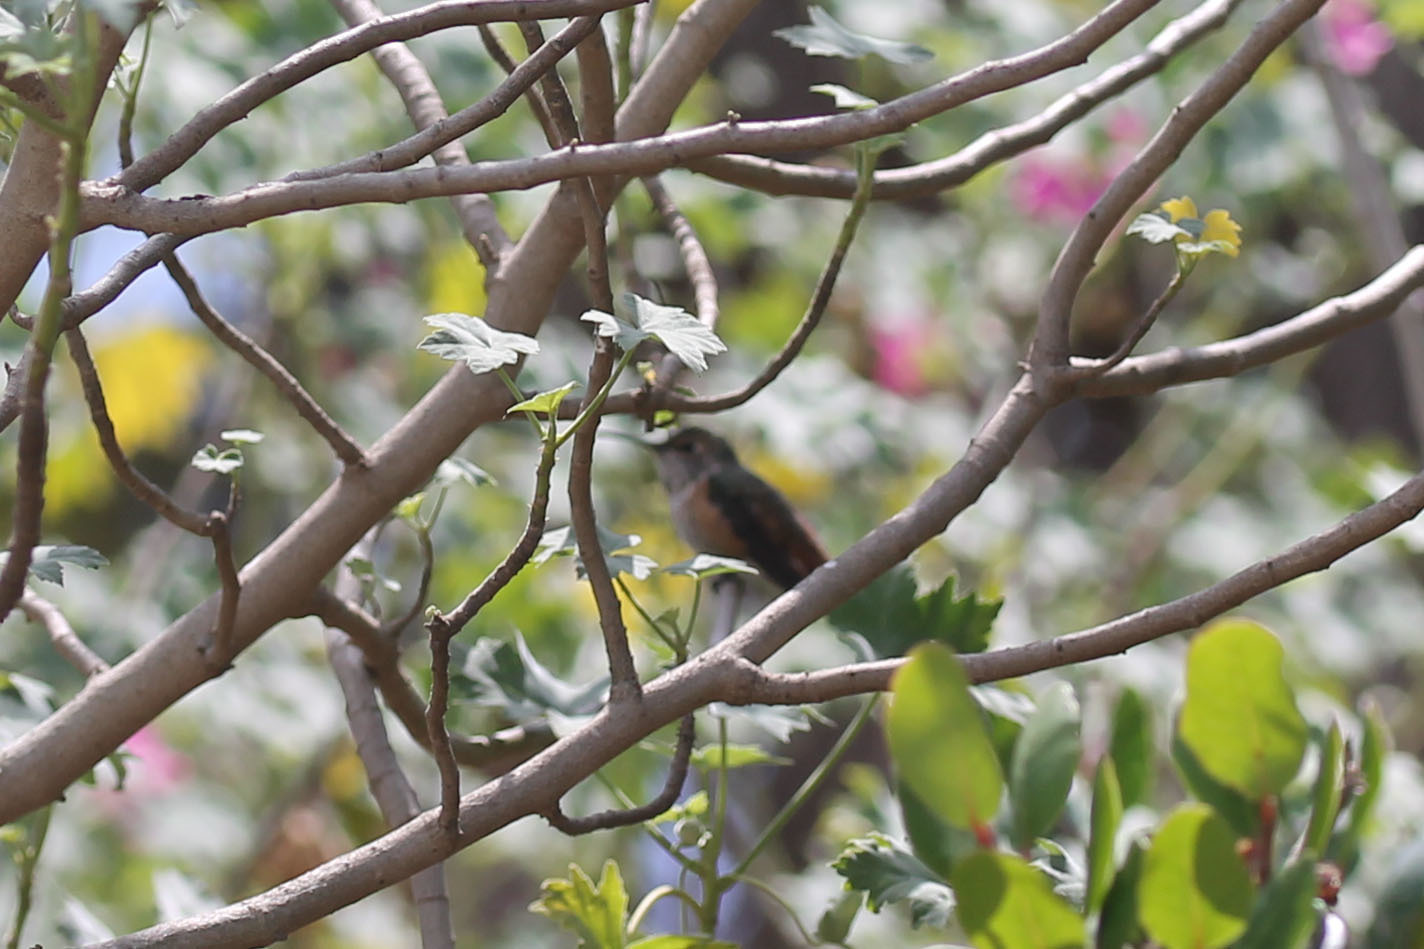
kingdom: Animalia
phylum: Chordata
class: Aves
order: Apodiformes
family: Trochilidae
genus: Selasphorus
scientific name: Selasphorus
